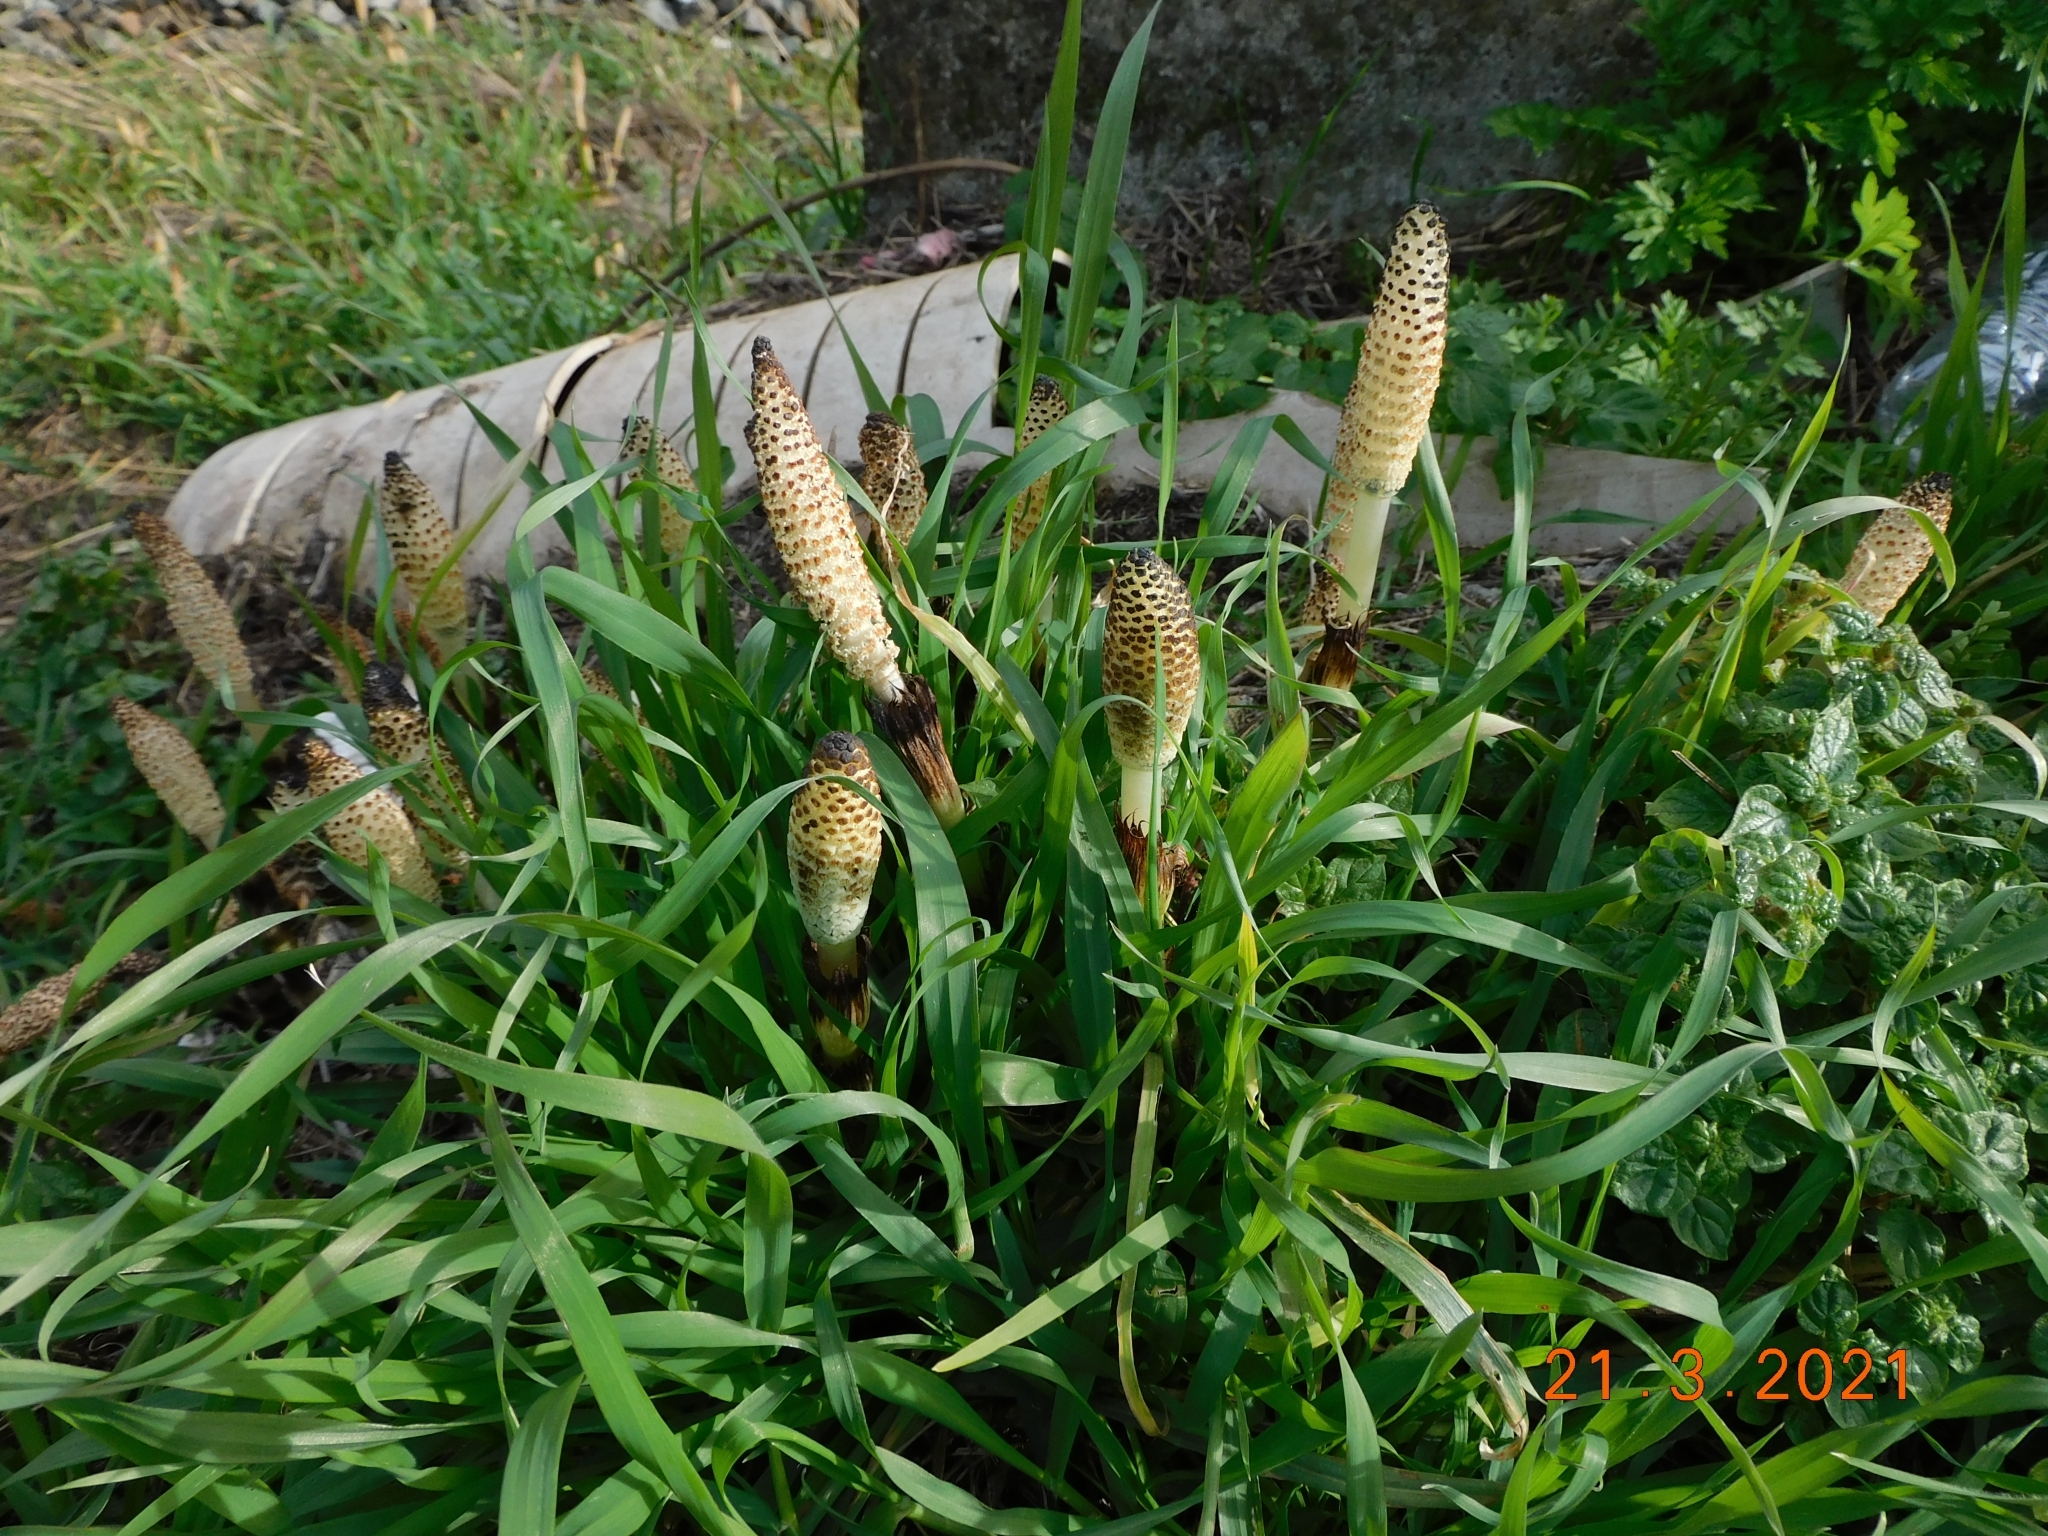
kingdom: Plantae
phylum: Tracheophyta
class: Polypodiopsida
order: Equisetales
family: Equisetaceae
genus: Equisetum
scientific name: Equisetum telmateia
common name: Great horsetail
